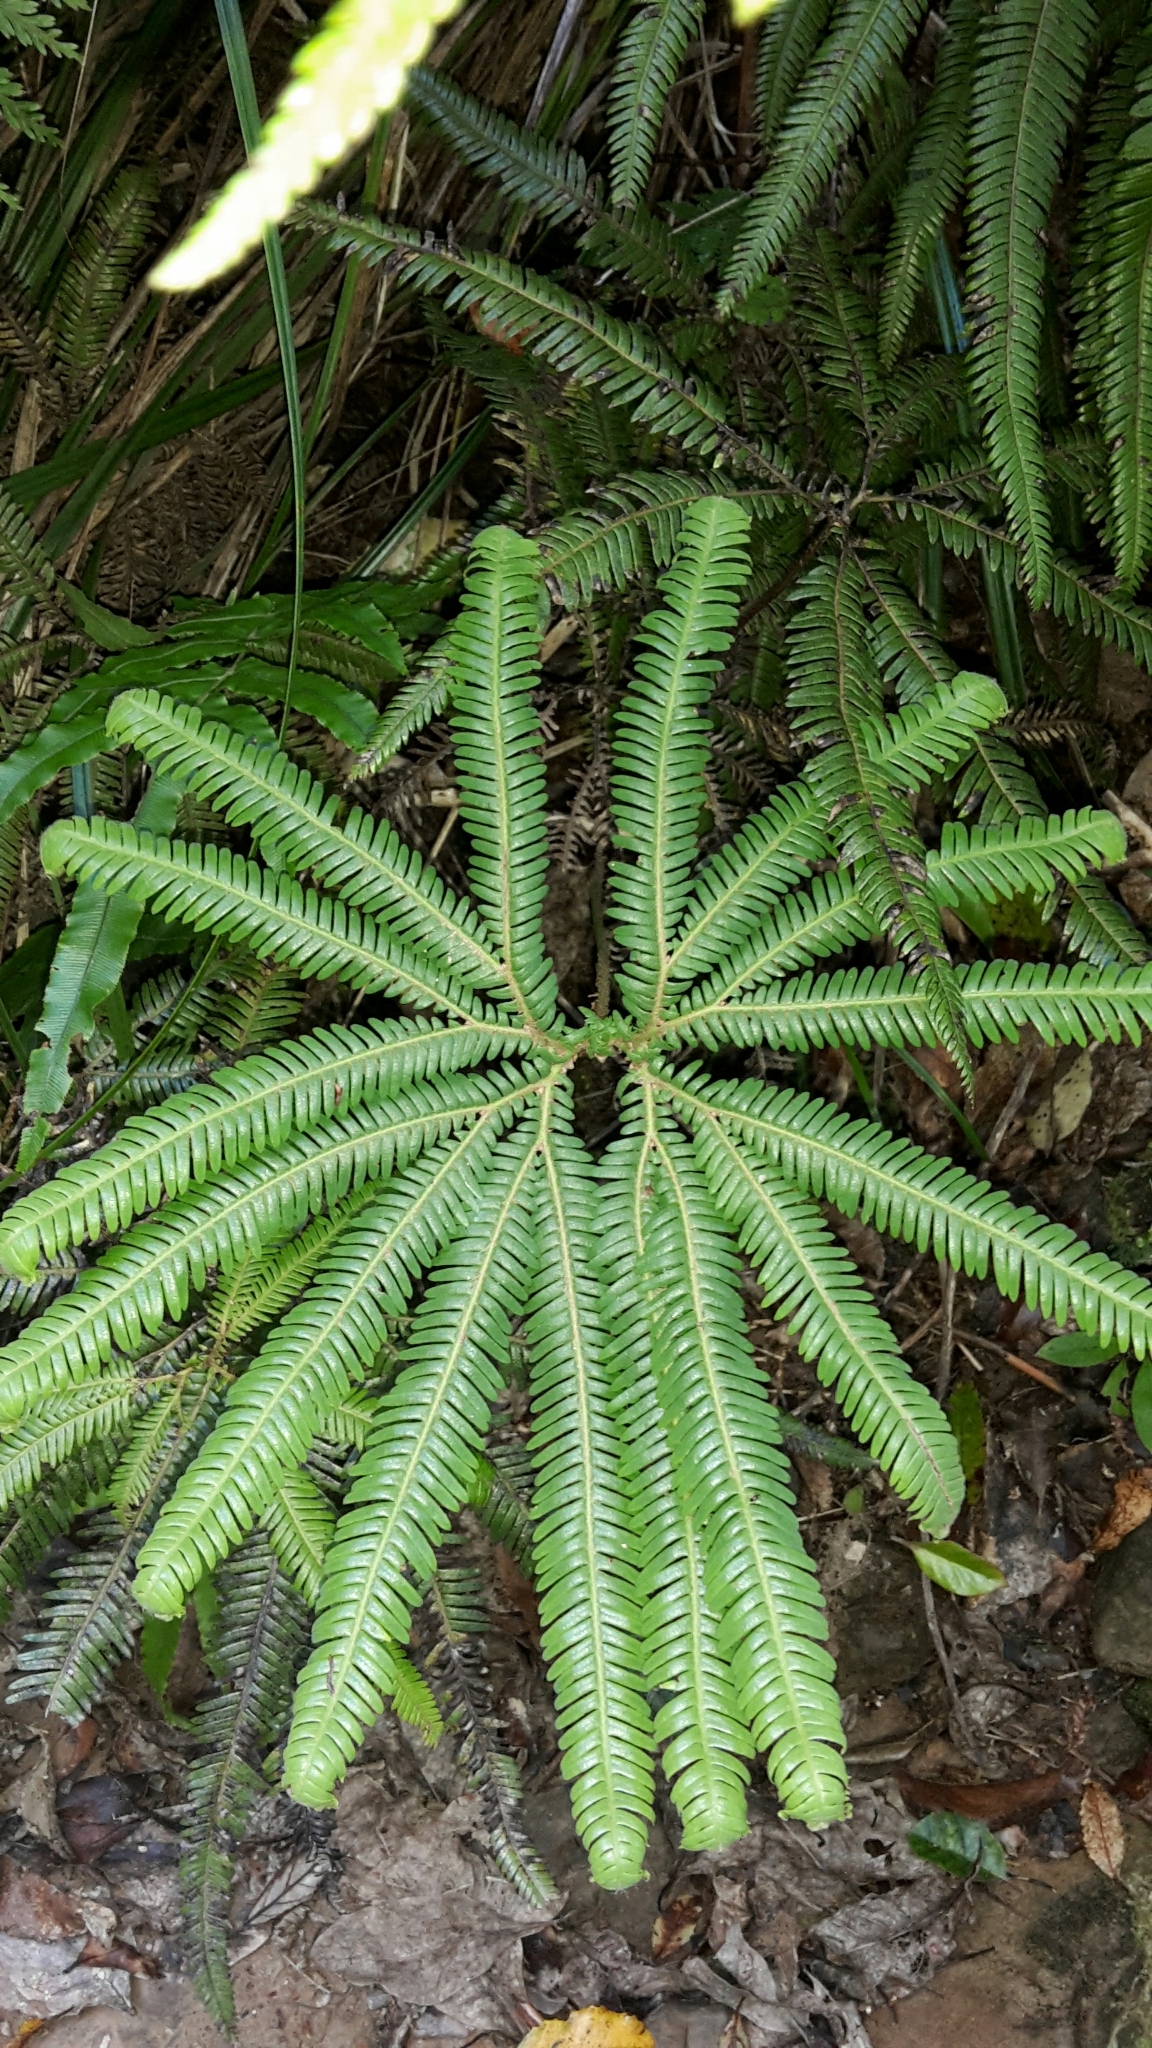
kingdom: Plantae
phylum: Tracheophyta
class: Polypodiopsida
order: Gleicheniales
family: Gleicheniaceae
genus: Sticherus
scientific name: Sticherus cunninghamii
